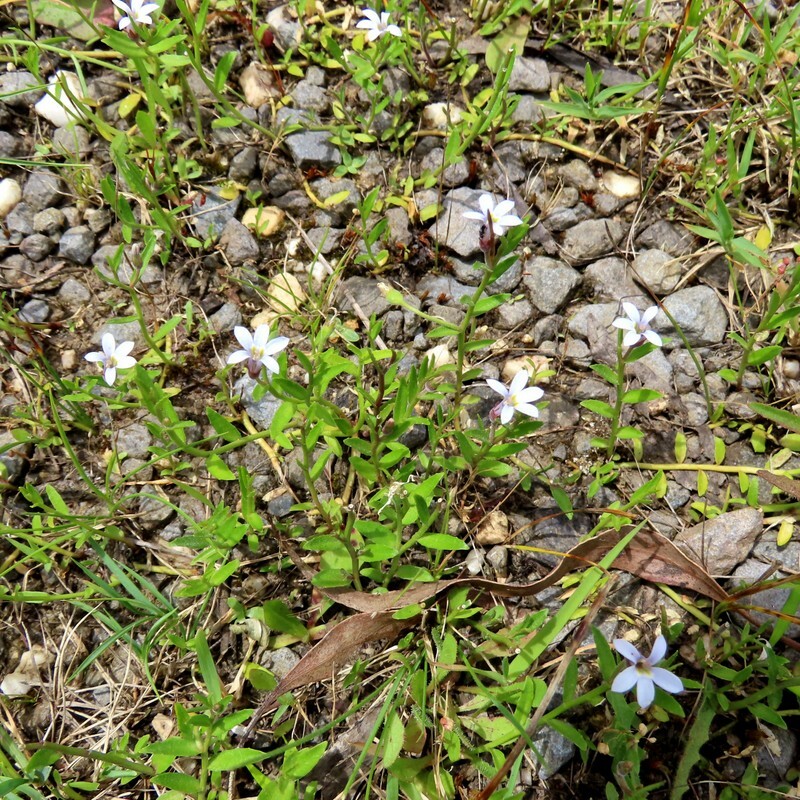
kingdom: Plantae
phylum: Tracheophyta
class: Magnoliopsida
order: Asterales
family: Campanulaceae
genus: Lobelia
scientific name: Lobelia pratioides
